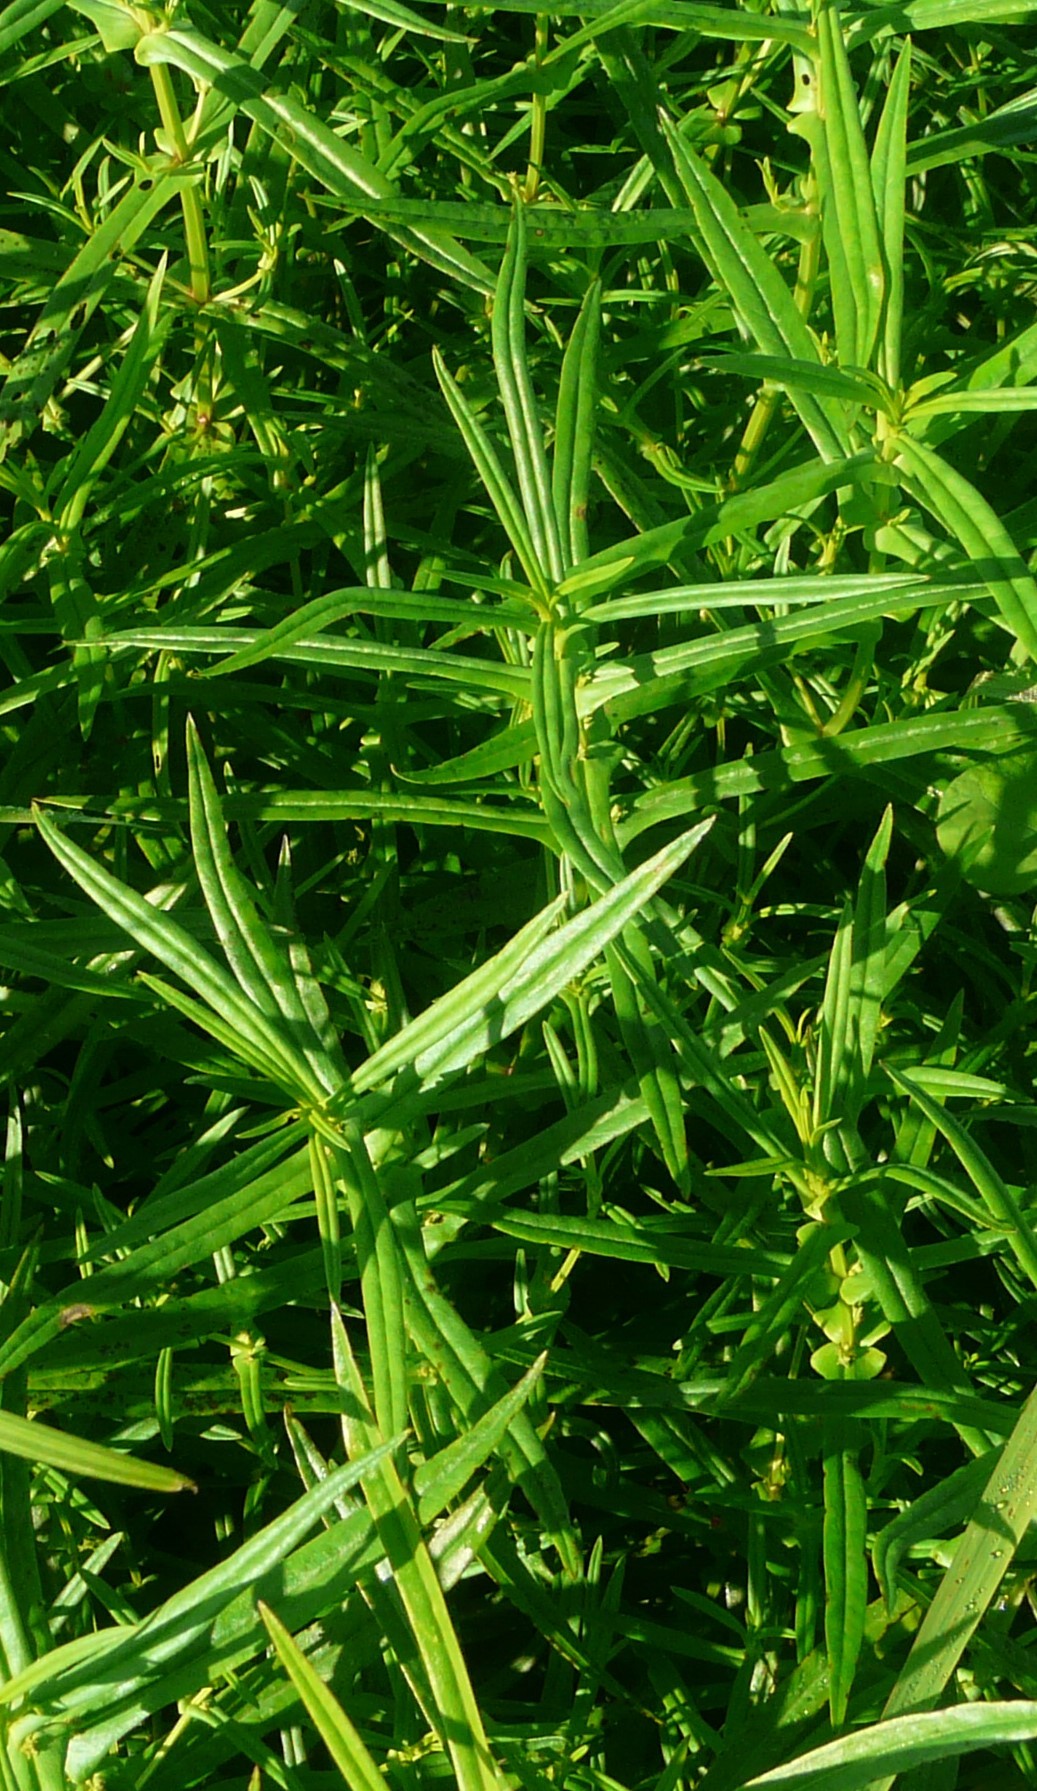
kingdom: Plantae
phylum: Tracheophyta
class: Magnoliopsida
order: Myrtales
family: Lythraceae
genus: Ammannia
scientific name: Ammannia coccinea
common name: Valley redstem
